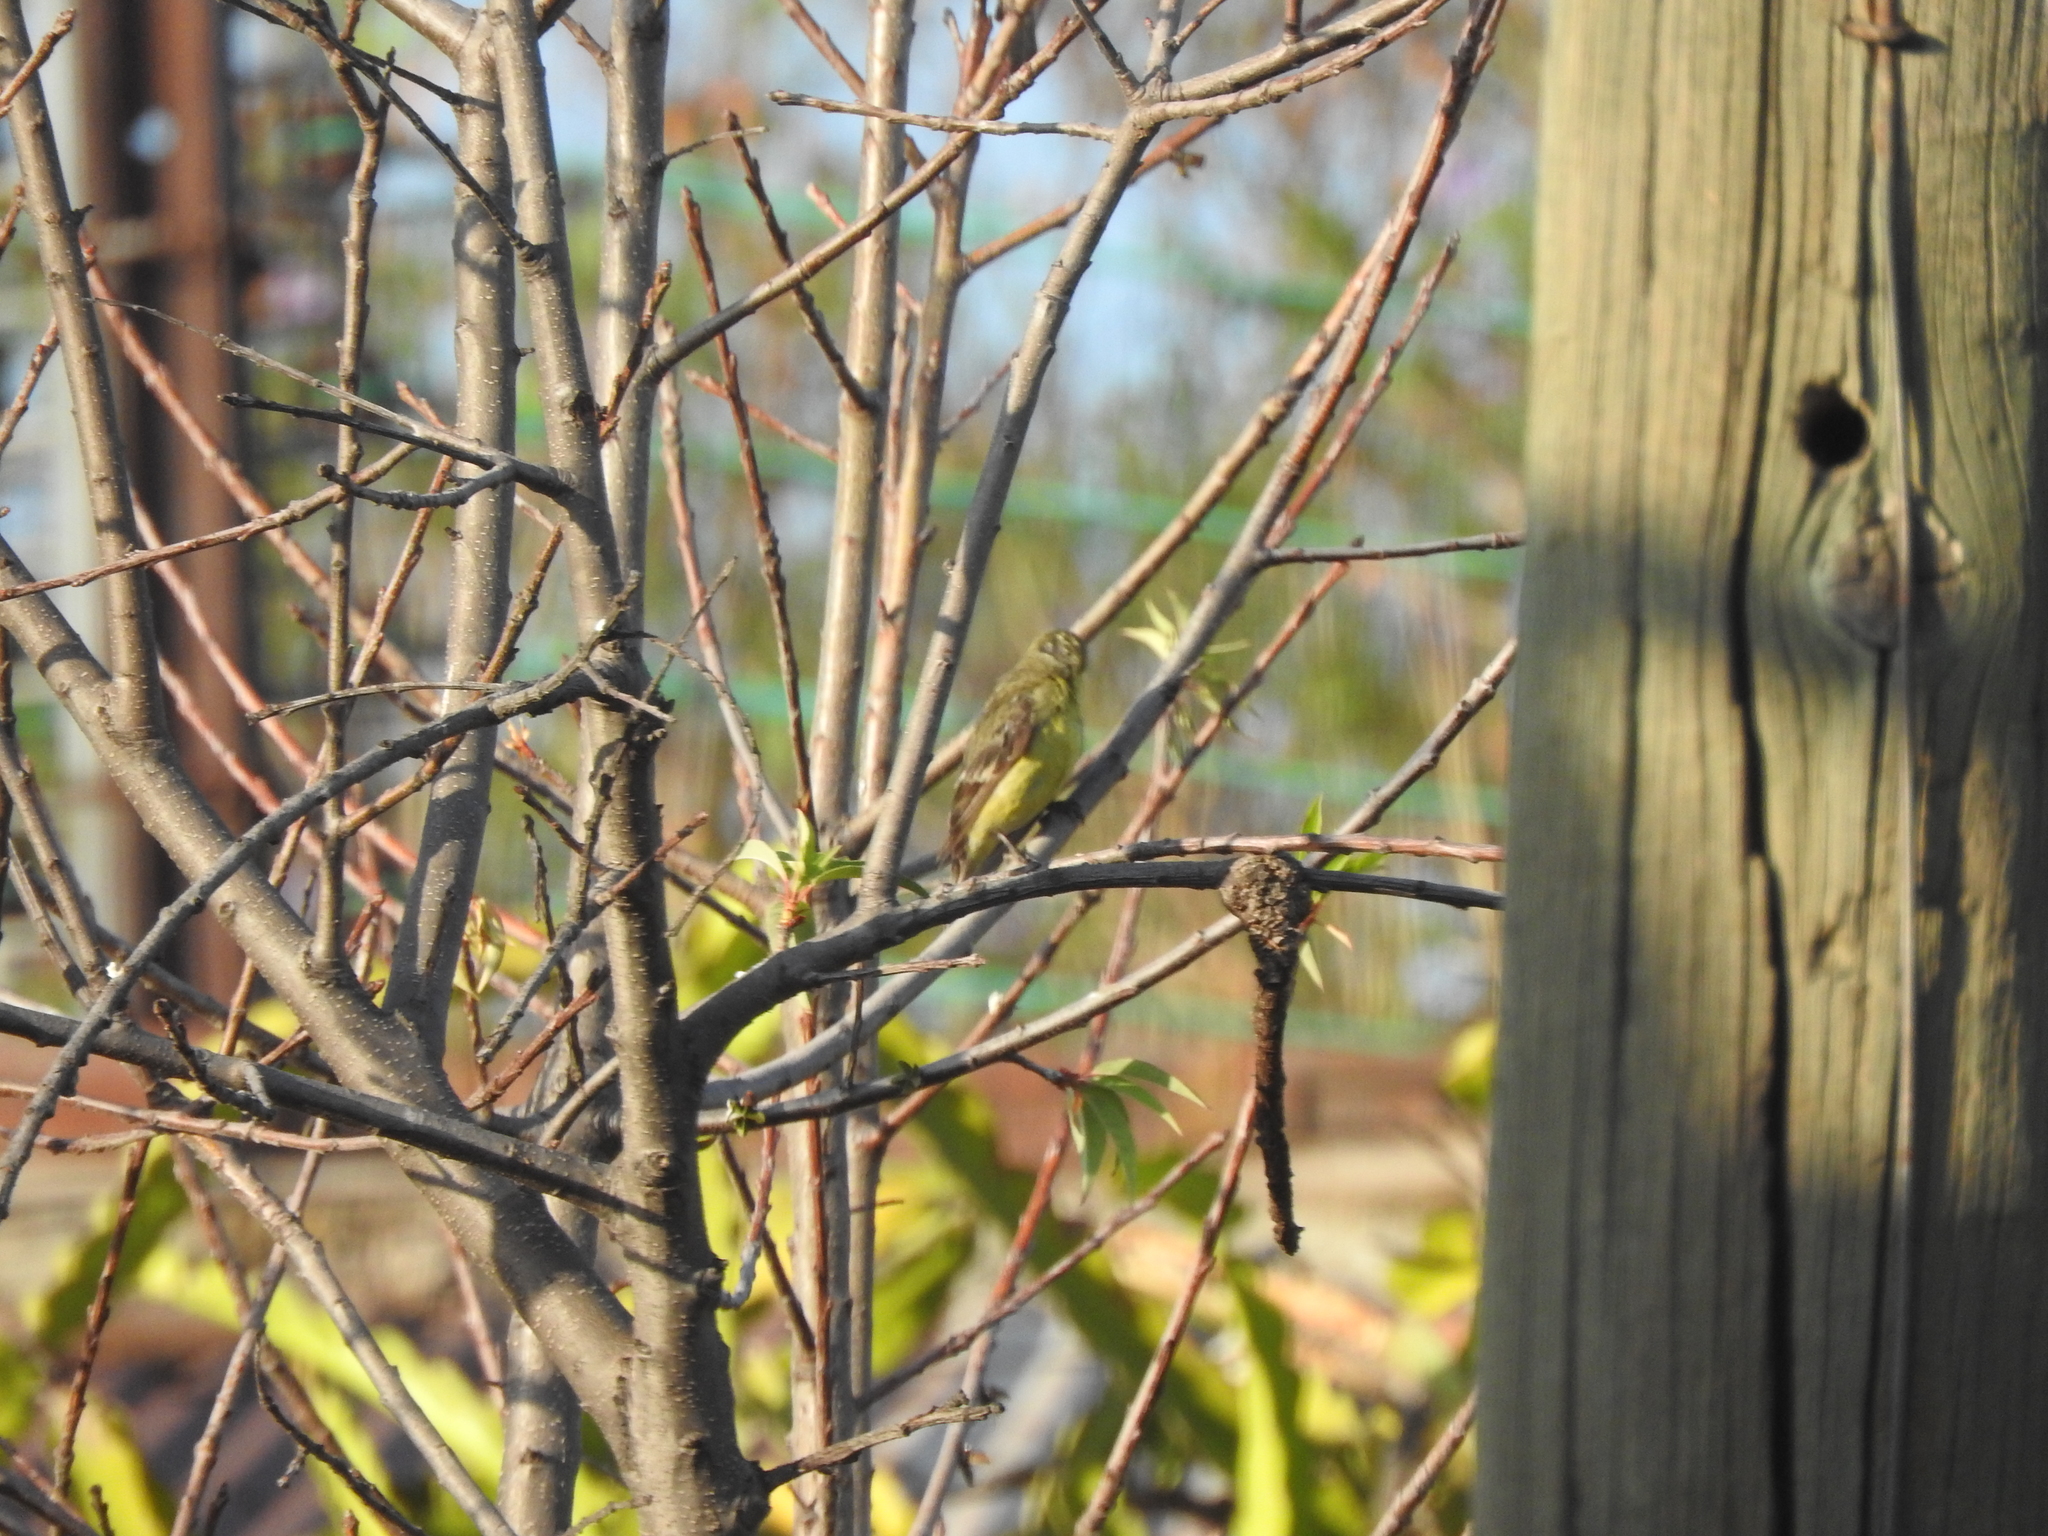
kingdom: Animalia
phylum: Chordata
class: Aves
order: Passeriformes
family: Fringillidae
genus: Spinus
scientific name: Spinus psaltria
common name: Lesser goldfinch
